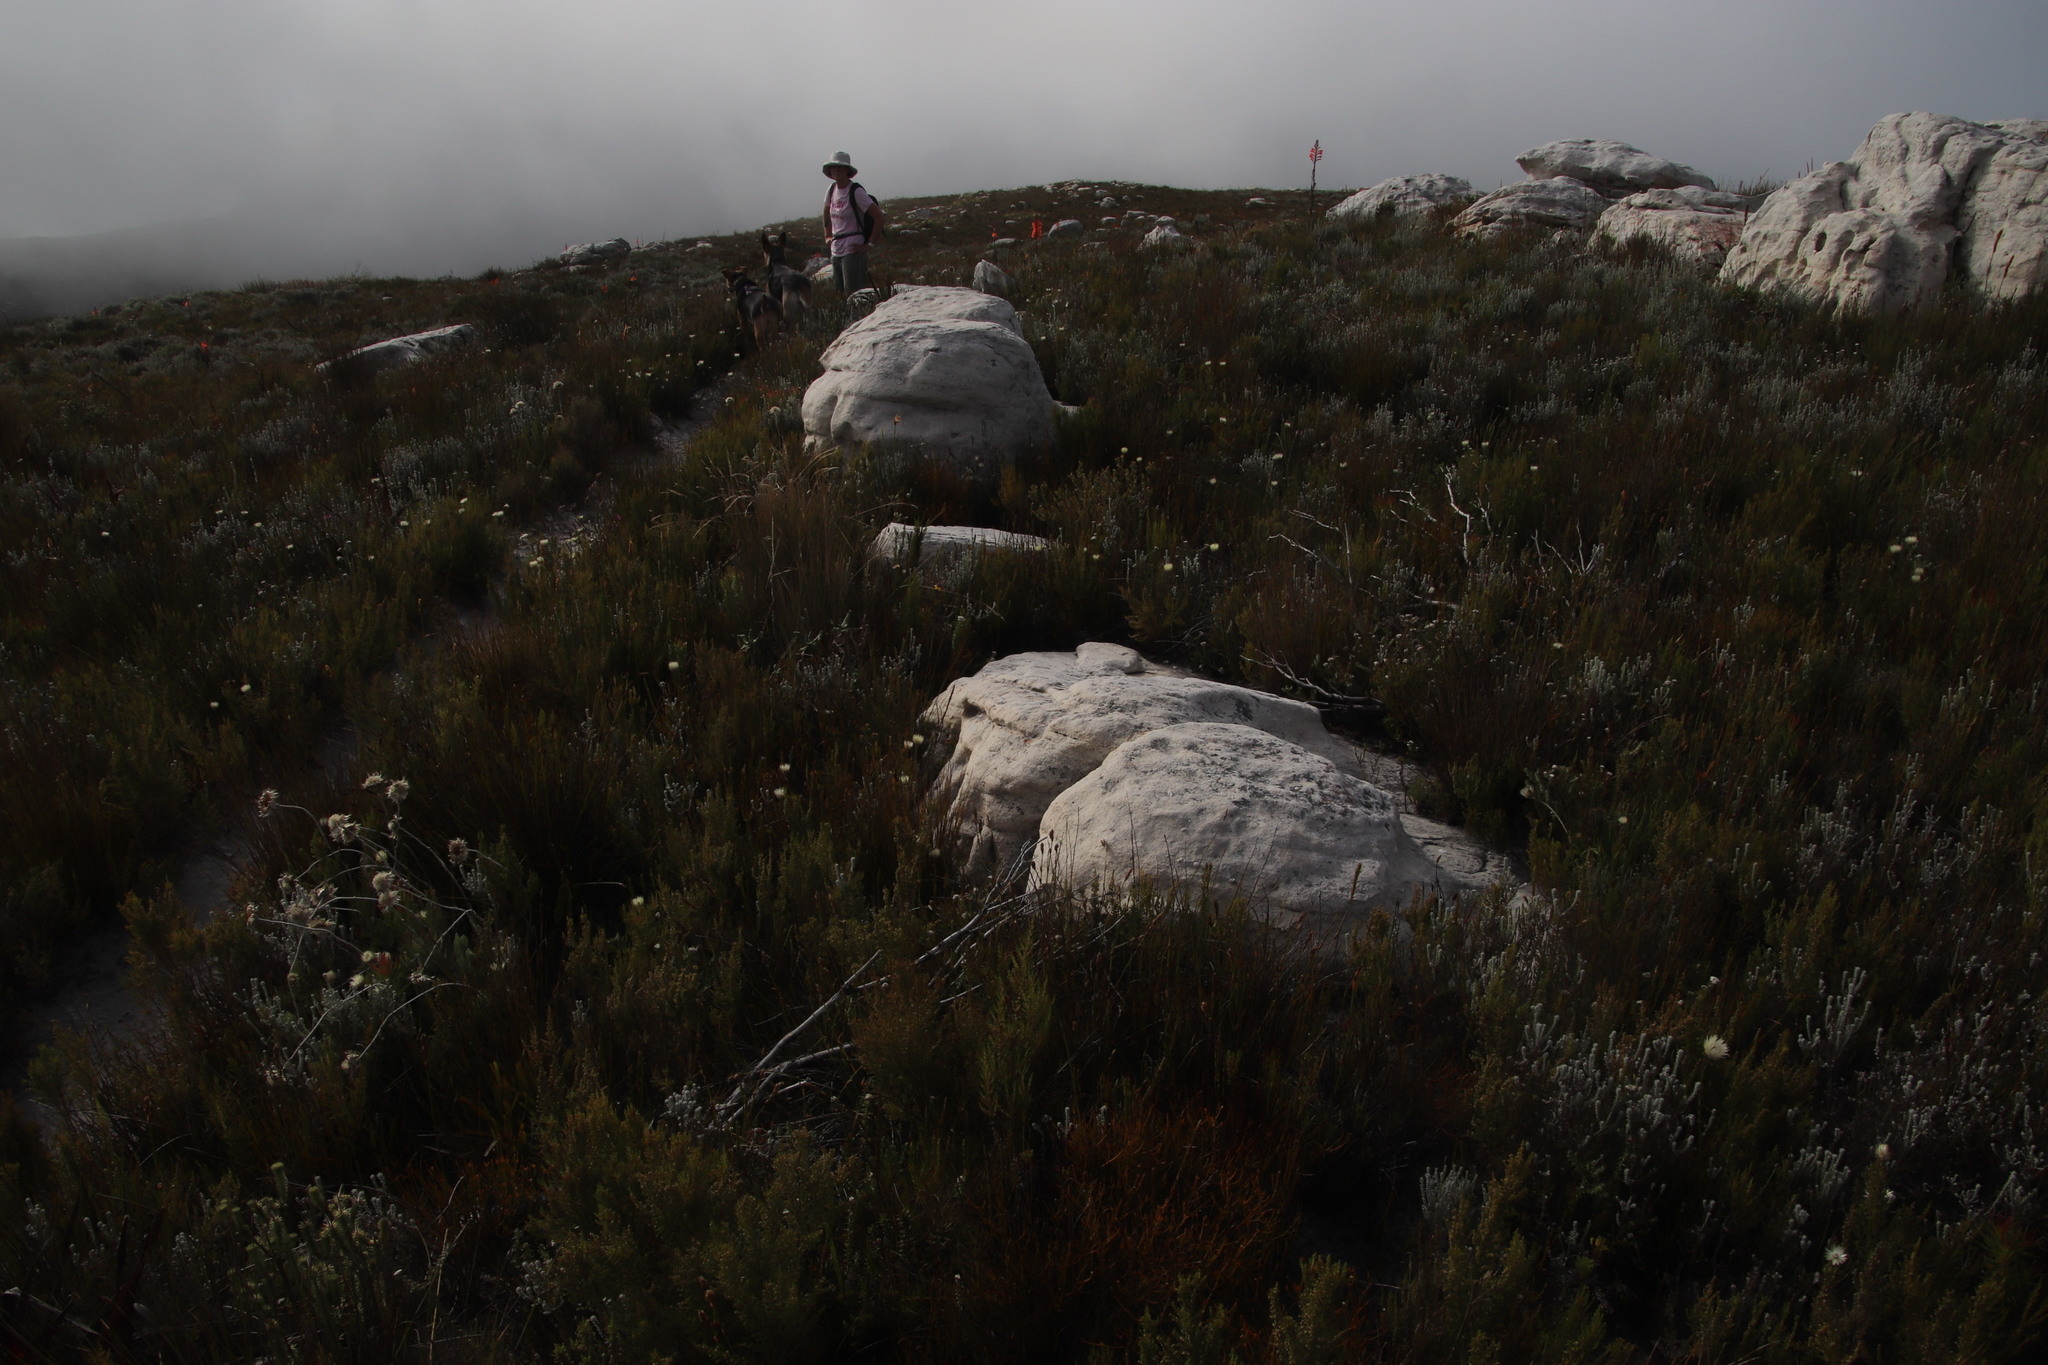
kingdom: Plantae
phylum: Tracheophyta
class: Magnoliopsida
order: Ericales
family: Ericaceae
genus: Erica
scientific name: Erica muscosa
